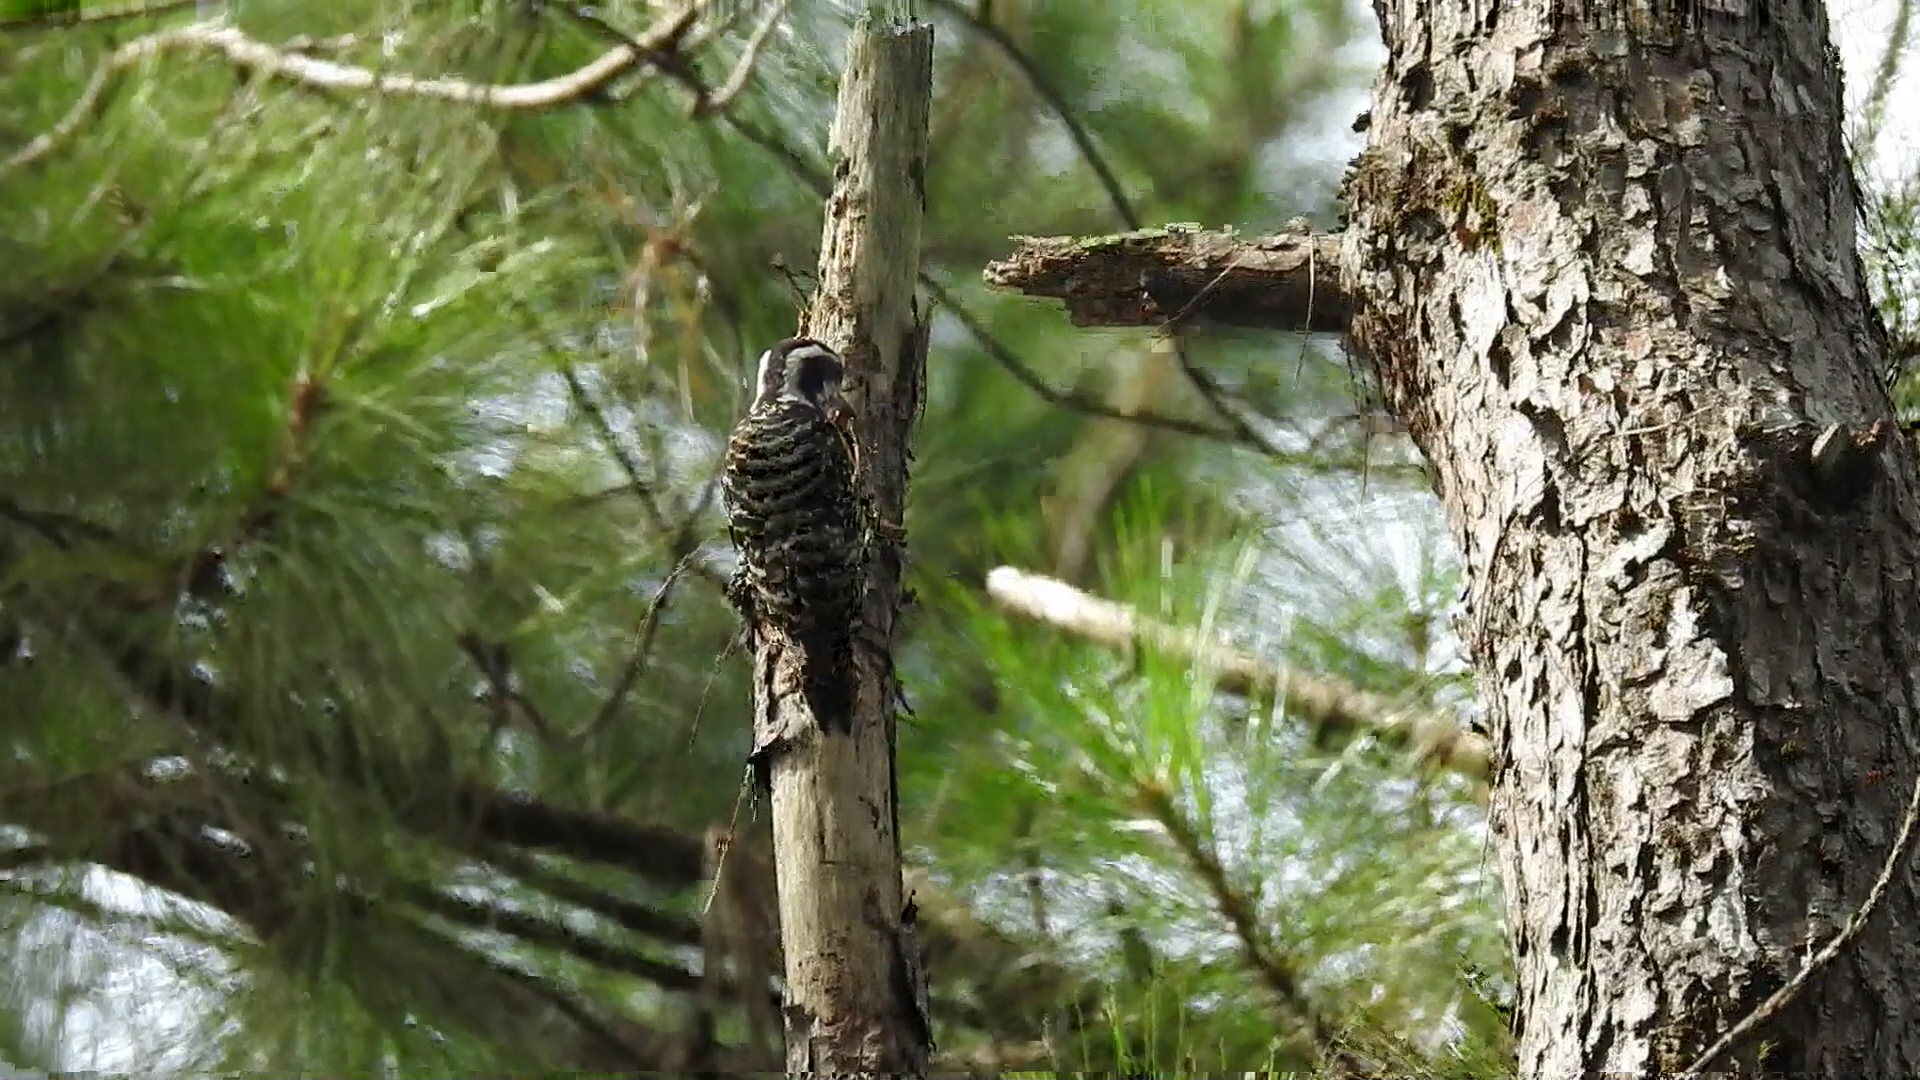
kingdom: Animalia
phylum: Chordata
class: Aves
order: Piciformes
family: Picidae
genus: Yungipicus
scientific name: Yungipicus maculatus
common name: Philippine pygmy woodpecker
